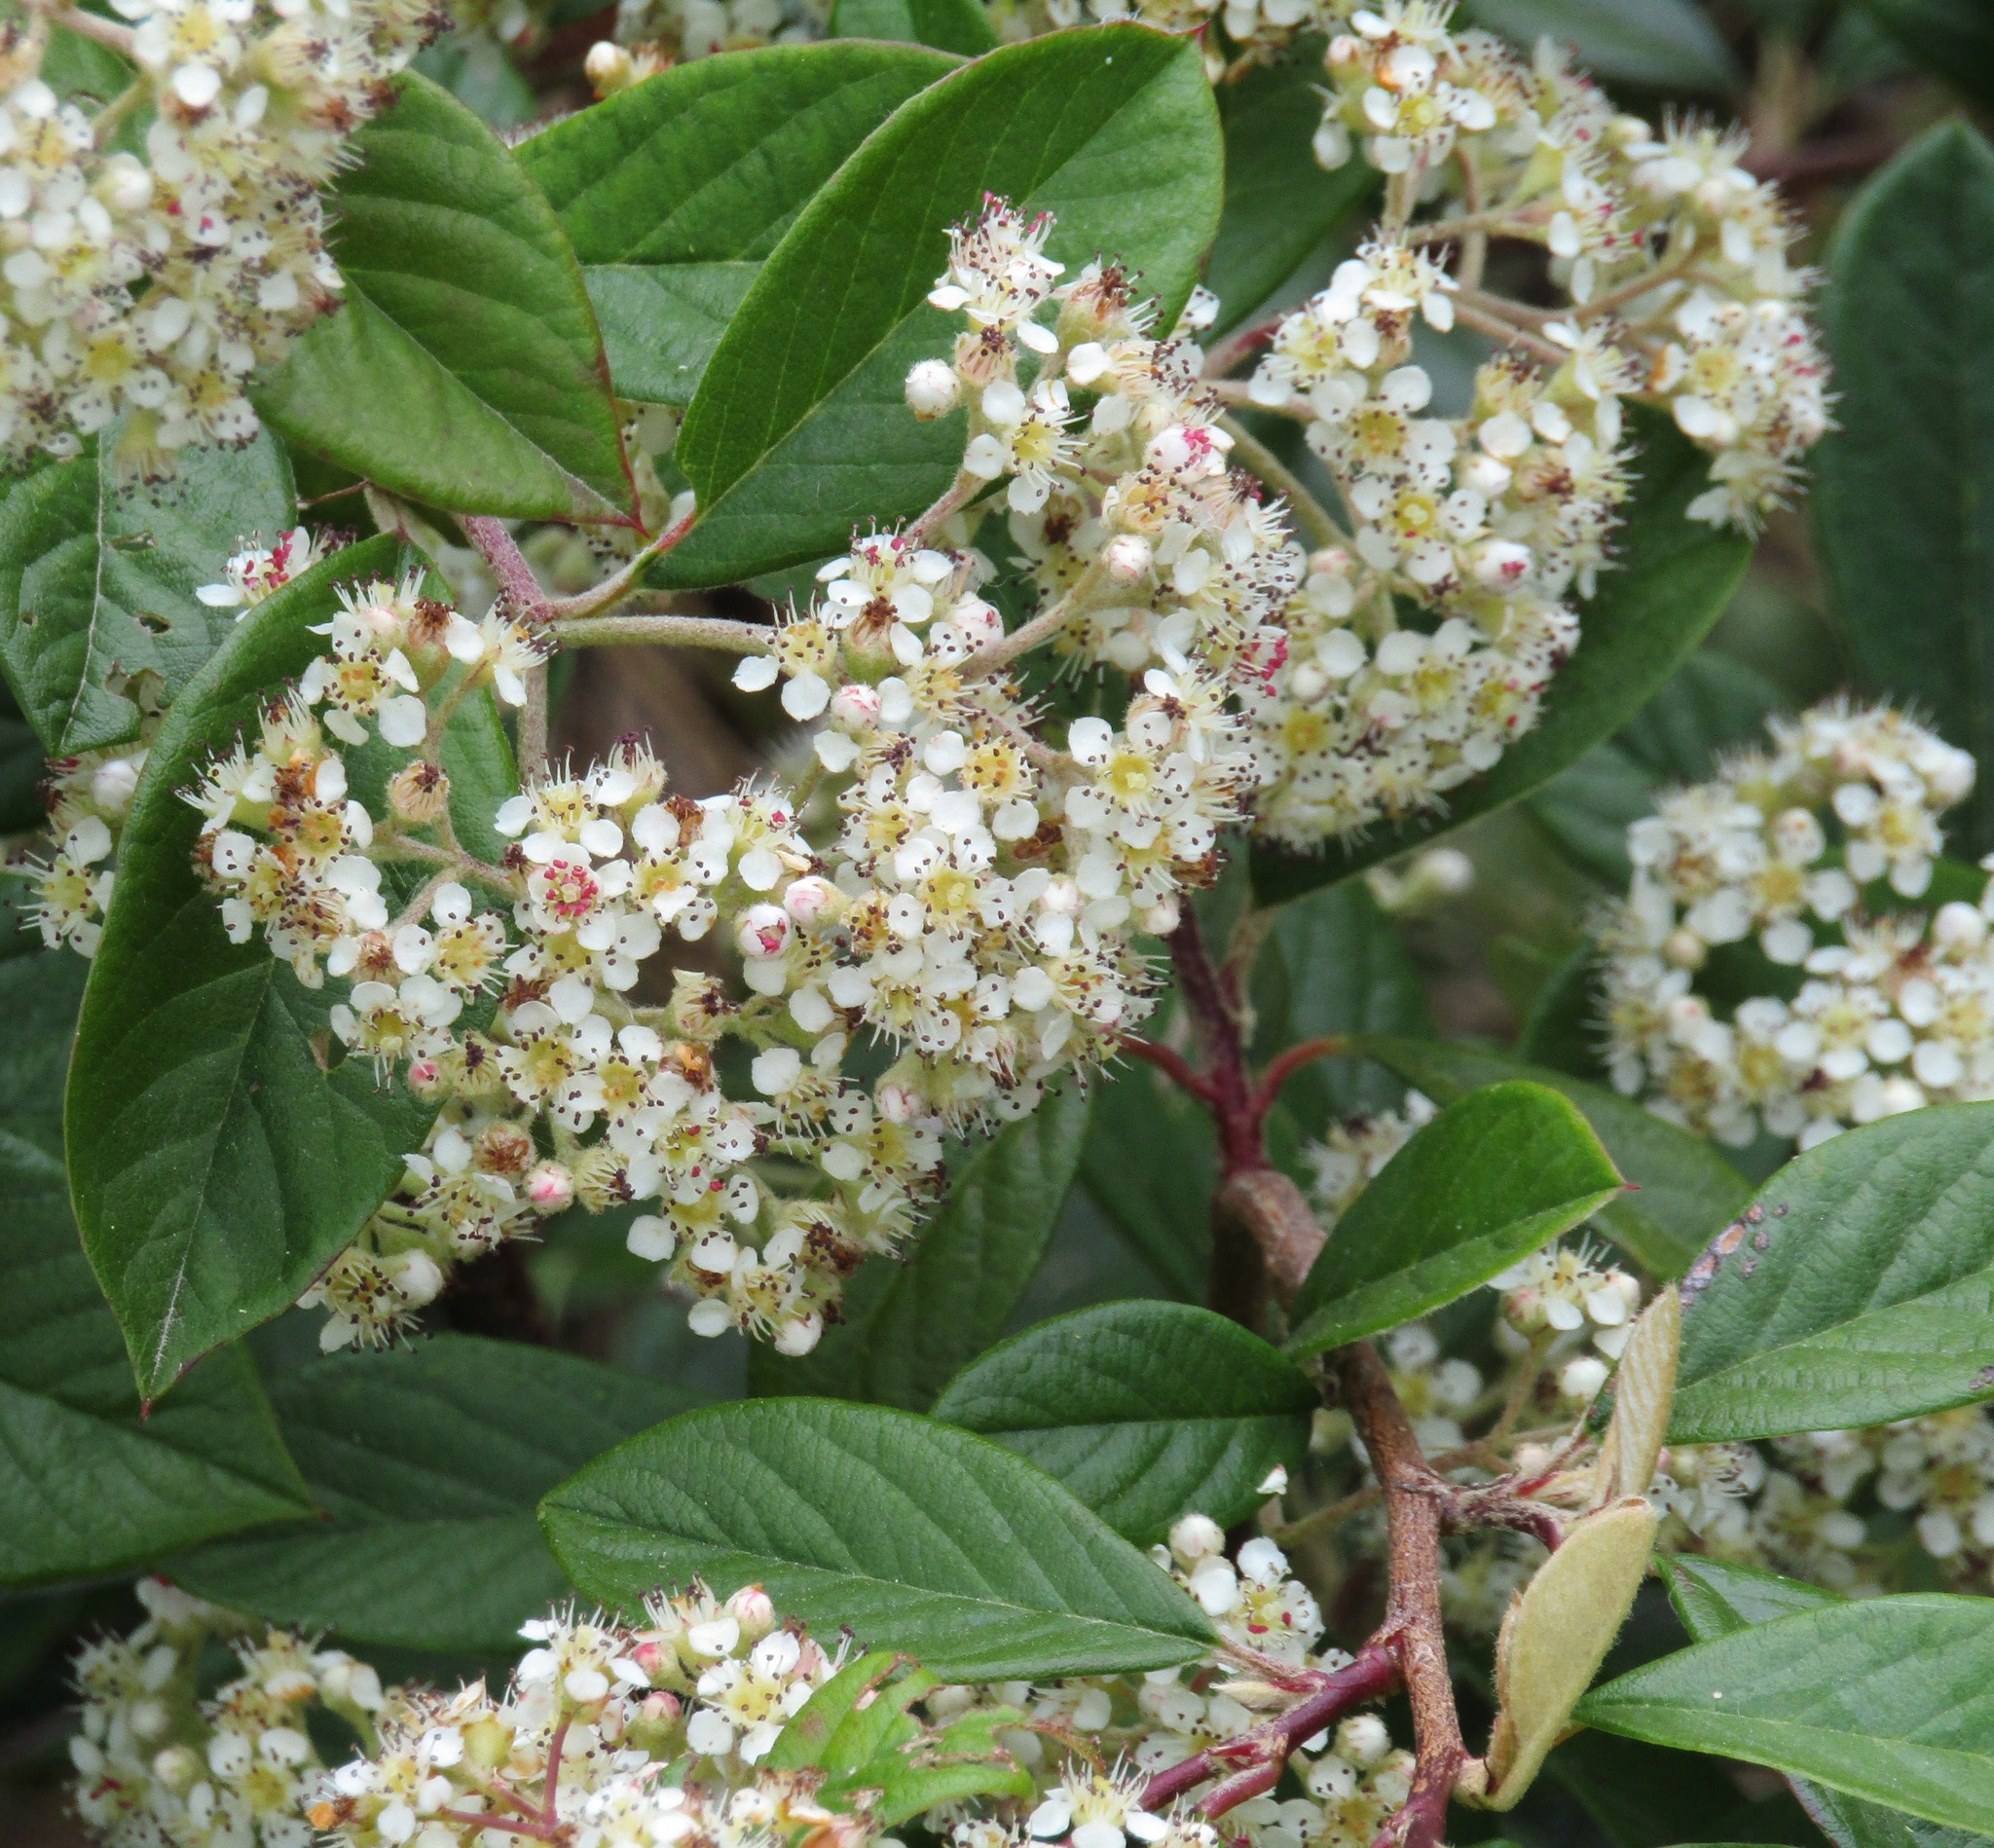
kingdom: Plantae
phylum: Tracheophyta
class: Magnoliopsida
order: Rosales
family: Rosaceae
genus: Cotoneaster
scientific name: Cotoneaster coriaceus
